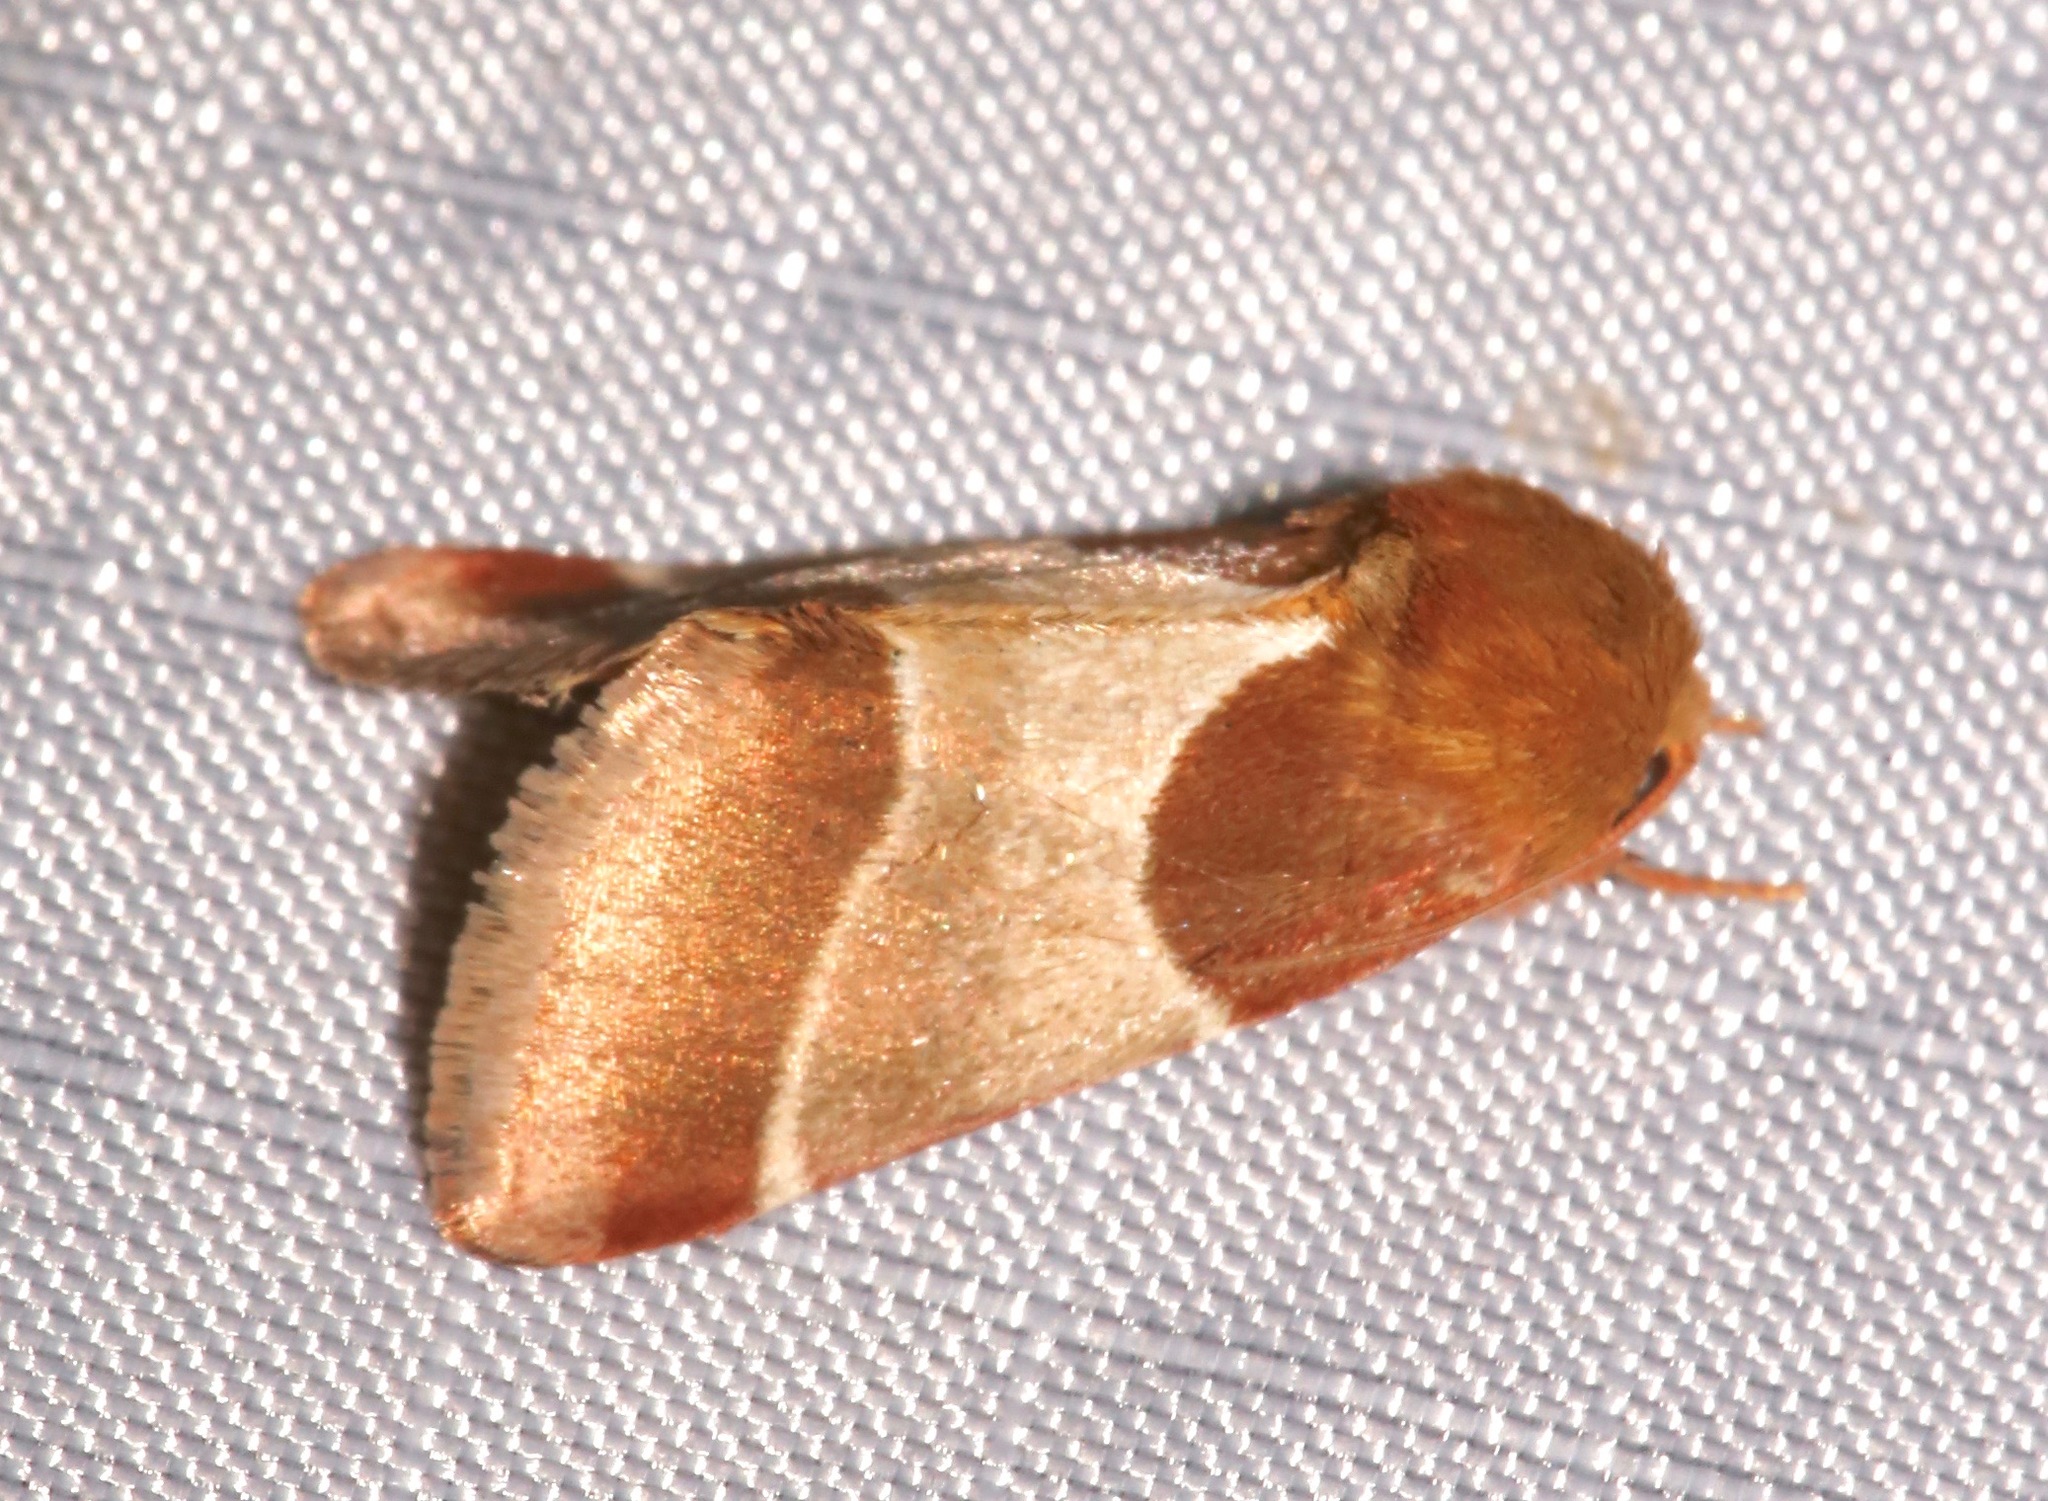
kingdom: Animalia
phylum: Arthropoda
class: Insecta
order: Lepidoptera
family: Noctuidae
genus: Schinia
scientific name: Schinia arcigera
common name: Arcigera flower moth
